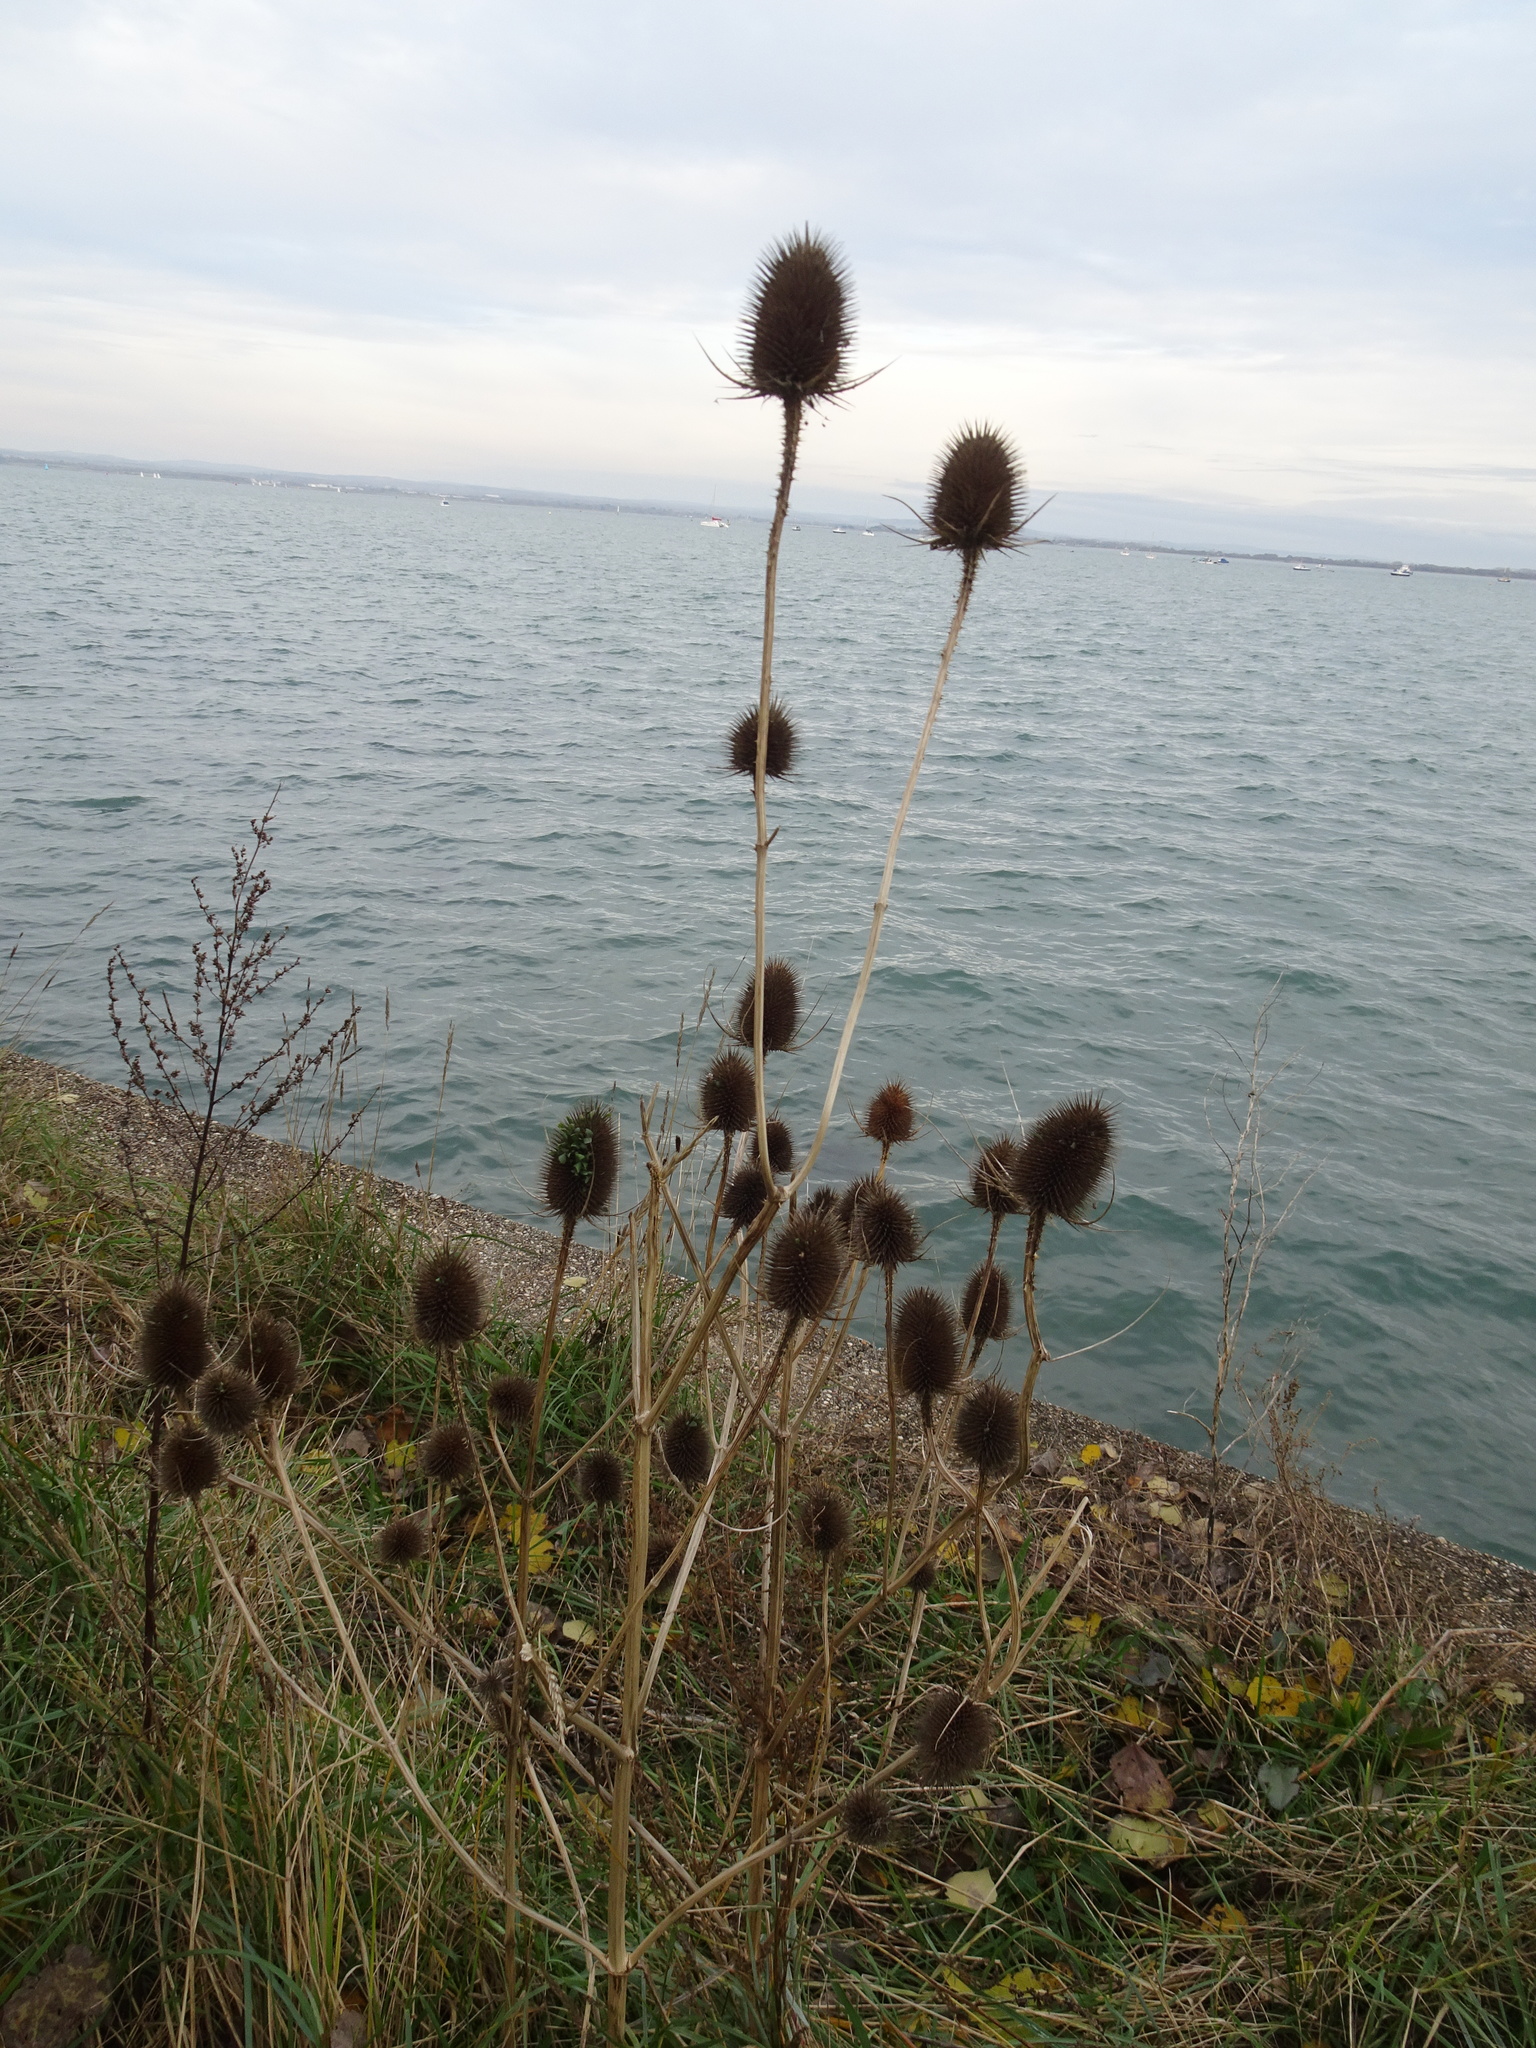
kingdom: Plantae
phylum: Tracheophyta
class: Magnoliopsida
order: Dipsacales
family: Caprifoliaceae
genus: Dipsacus
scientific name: Dipsacus fullonum
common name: Teasel
